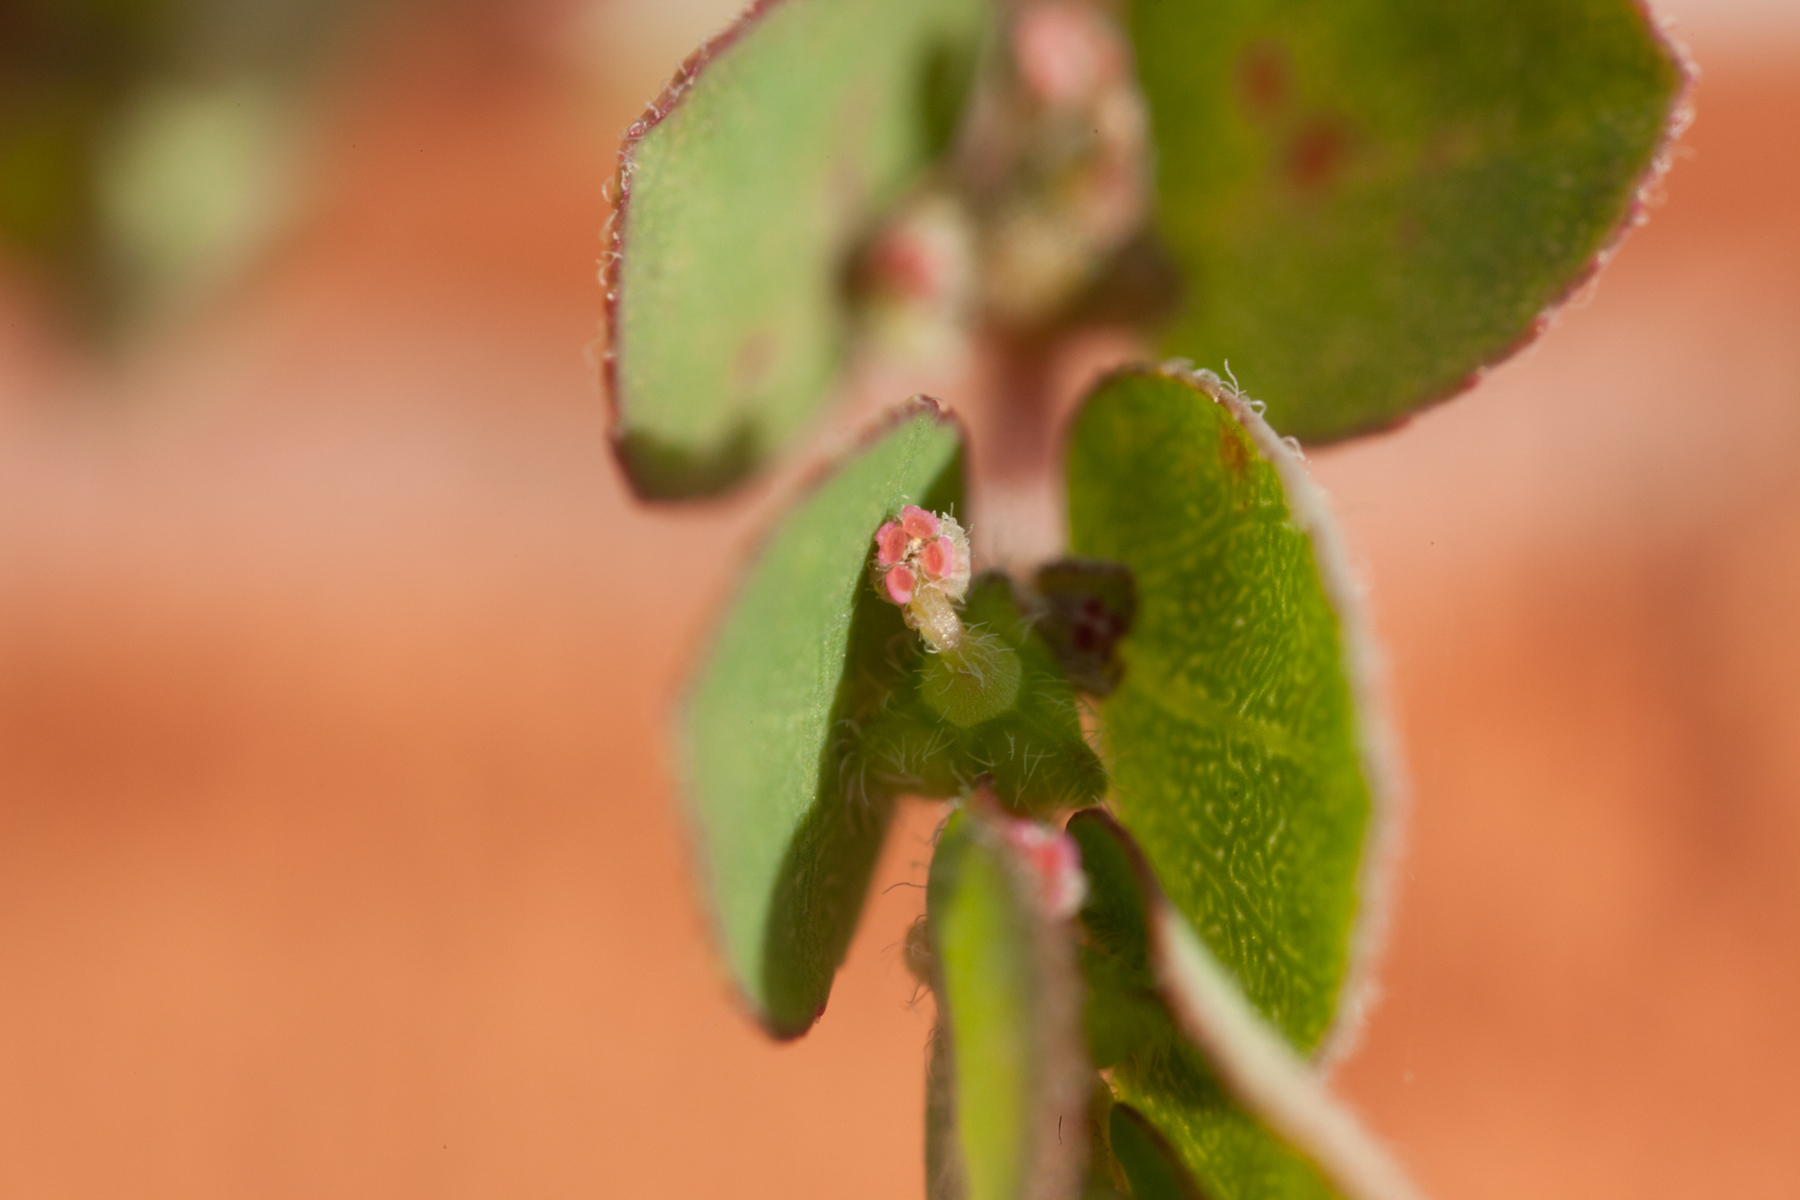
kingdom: Plantae
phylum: Tracheophyta
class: Magnoliopsida
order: Malpighiales
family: Euphorbiaceae
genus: Euphorbia
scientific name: Euphorbia prostrata
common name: Prostrate sandmat
